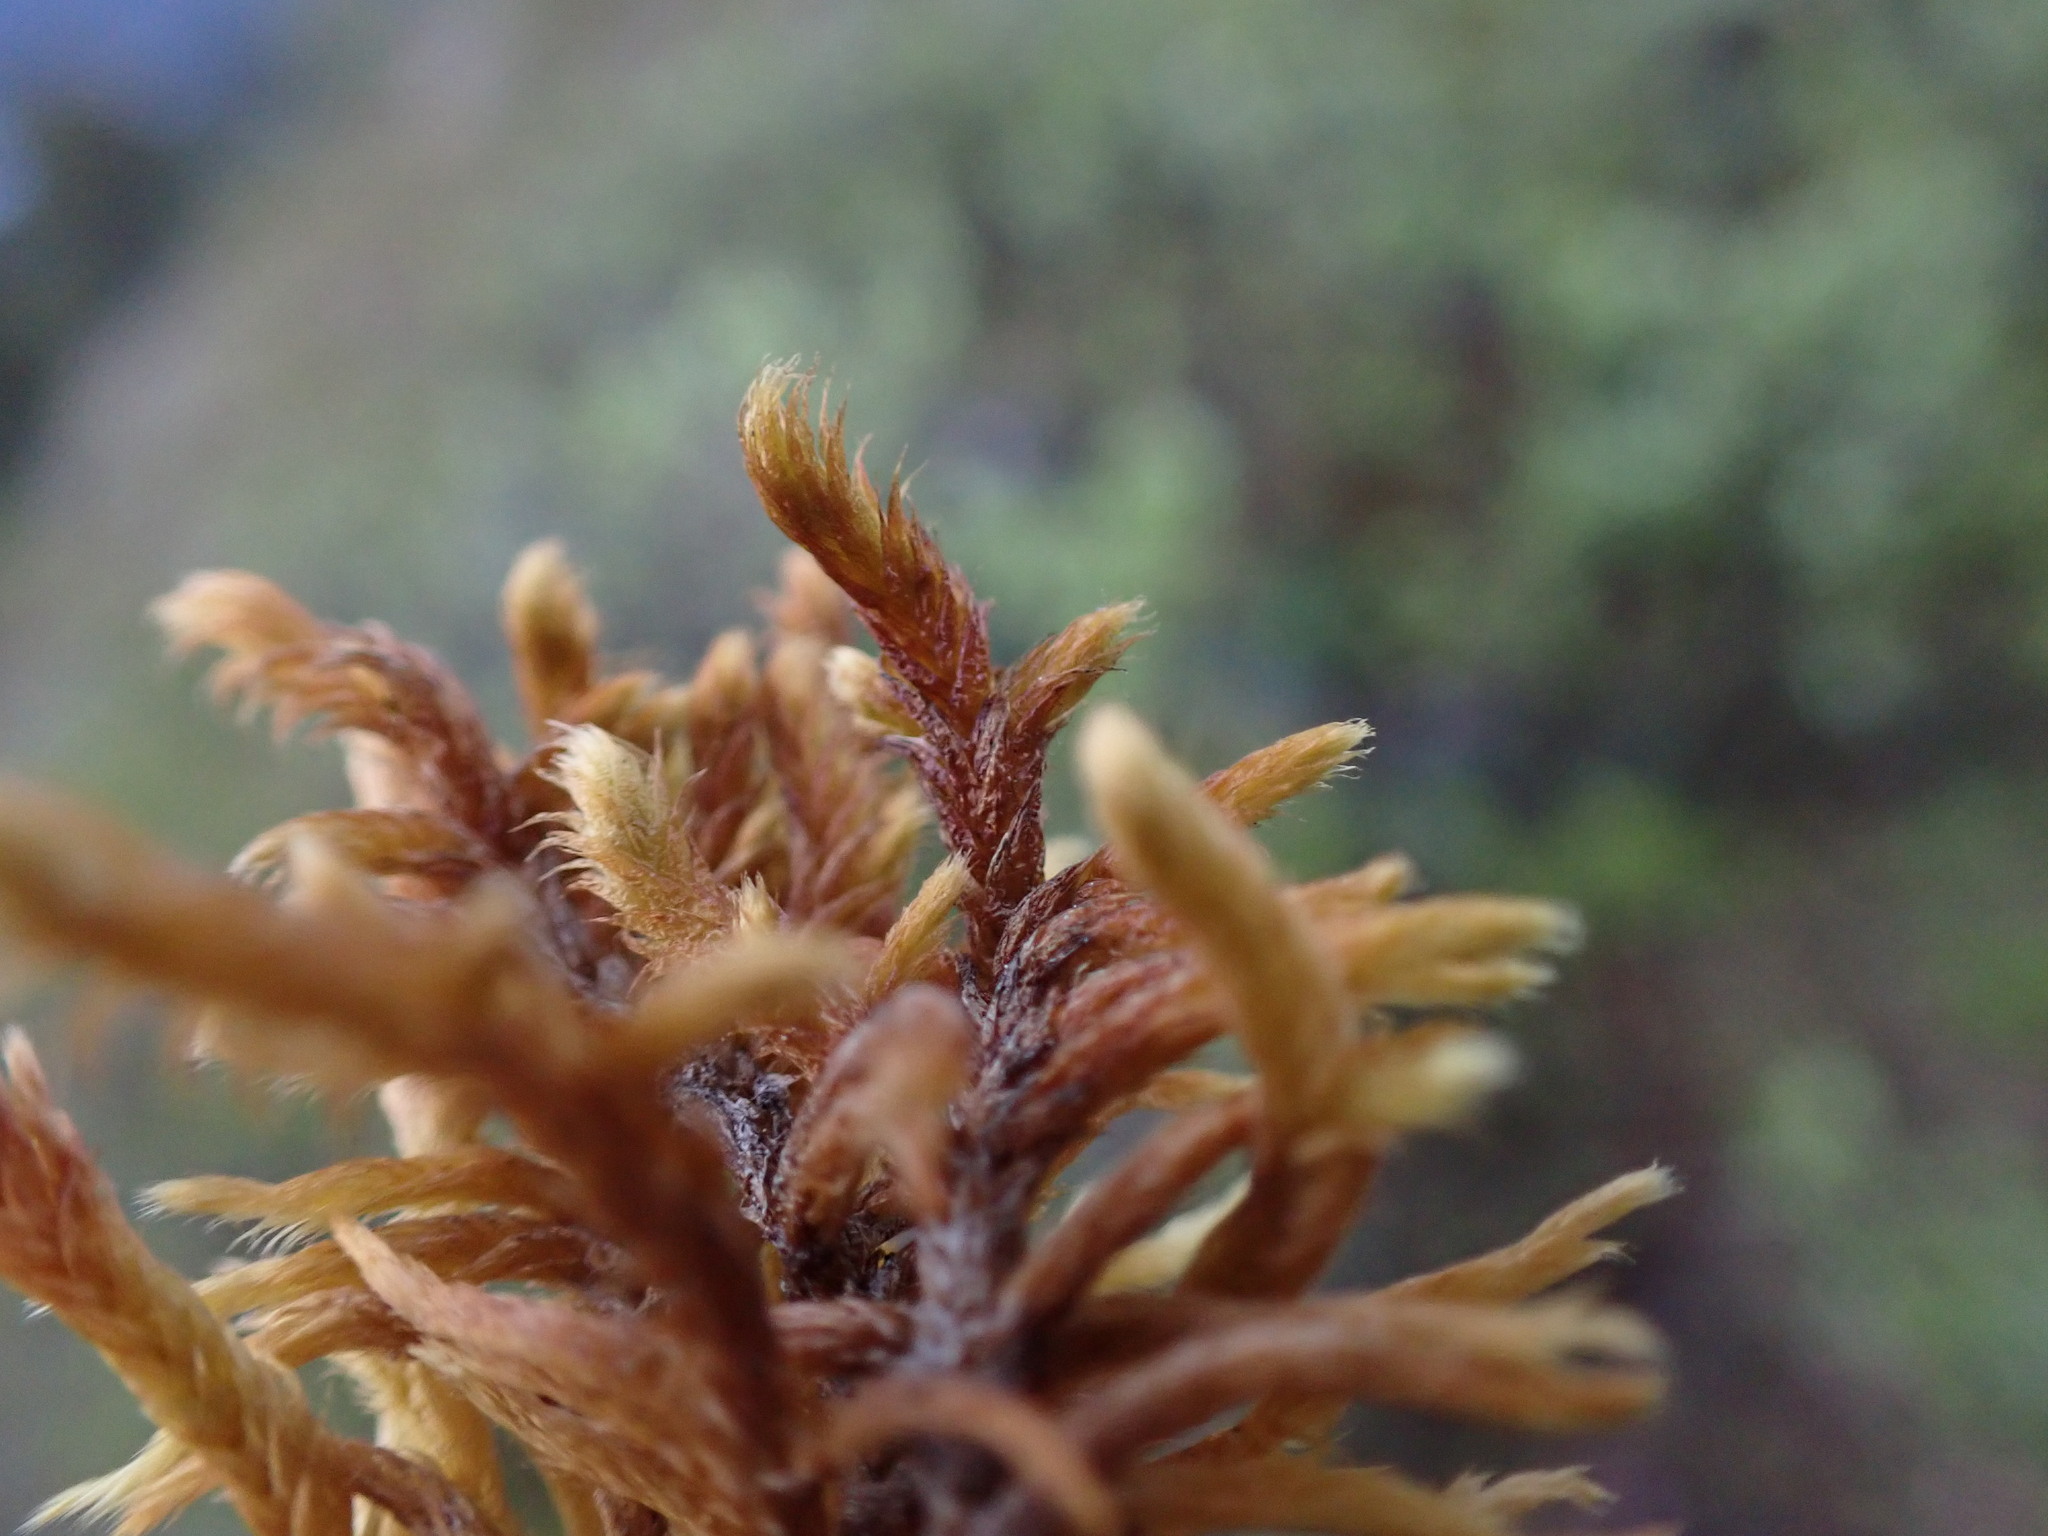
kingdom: Plantae
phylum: Bryophyta
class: Bryopsida
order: Hypnales
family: Rhytidiaceae
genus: Rhytidium
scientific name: Rhytidium rugosum
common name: Wrinkle-leaved moss
